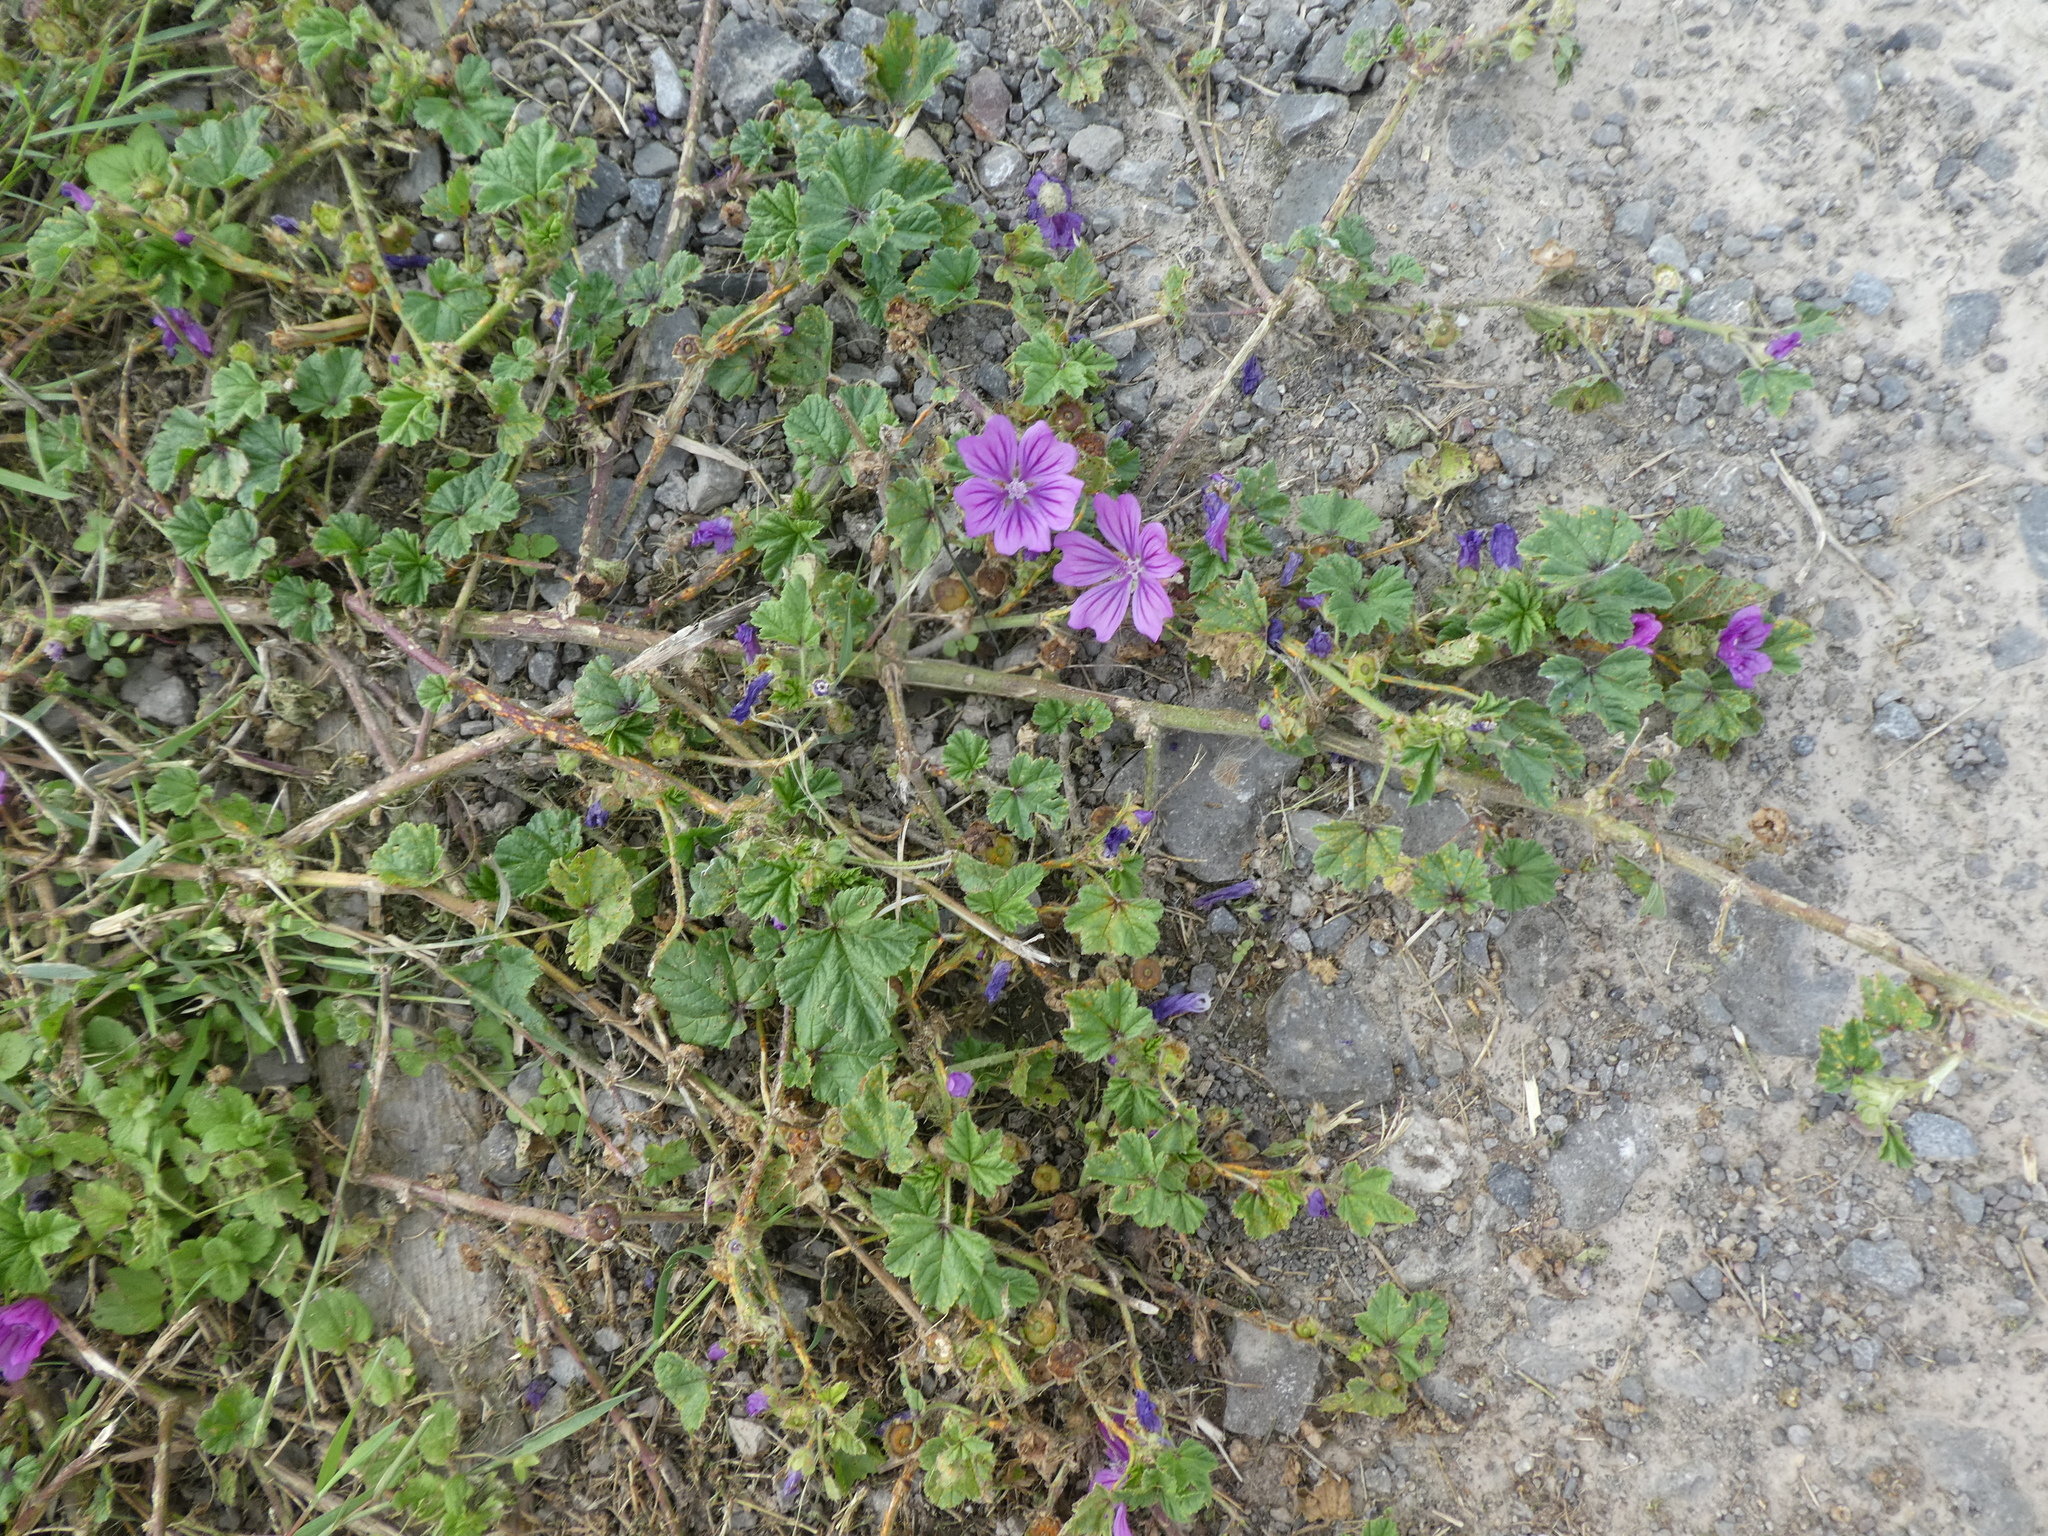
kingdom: Plantae
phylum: Tracheophyta
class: Magnoliopsida
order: Malvales
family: Malvaceae
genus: Malva
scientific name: Malva sylvestris
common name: Common mallow
